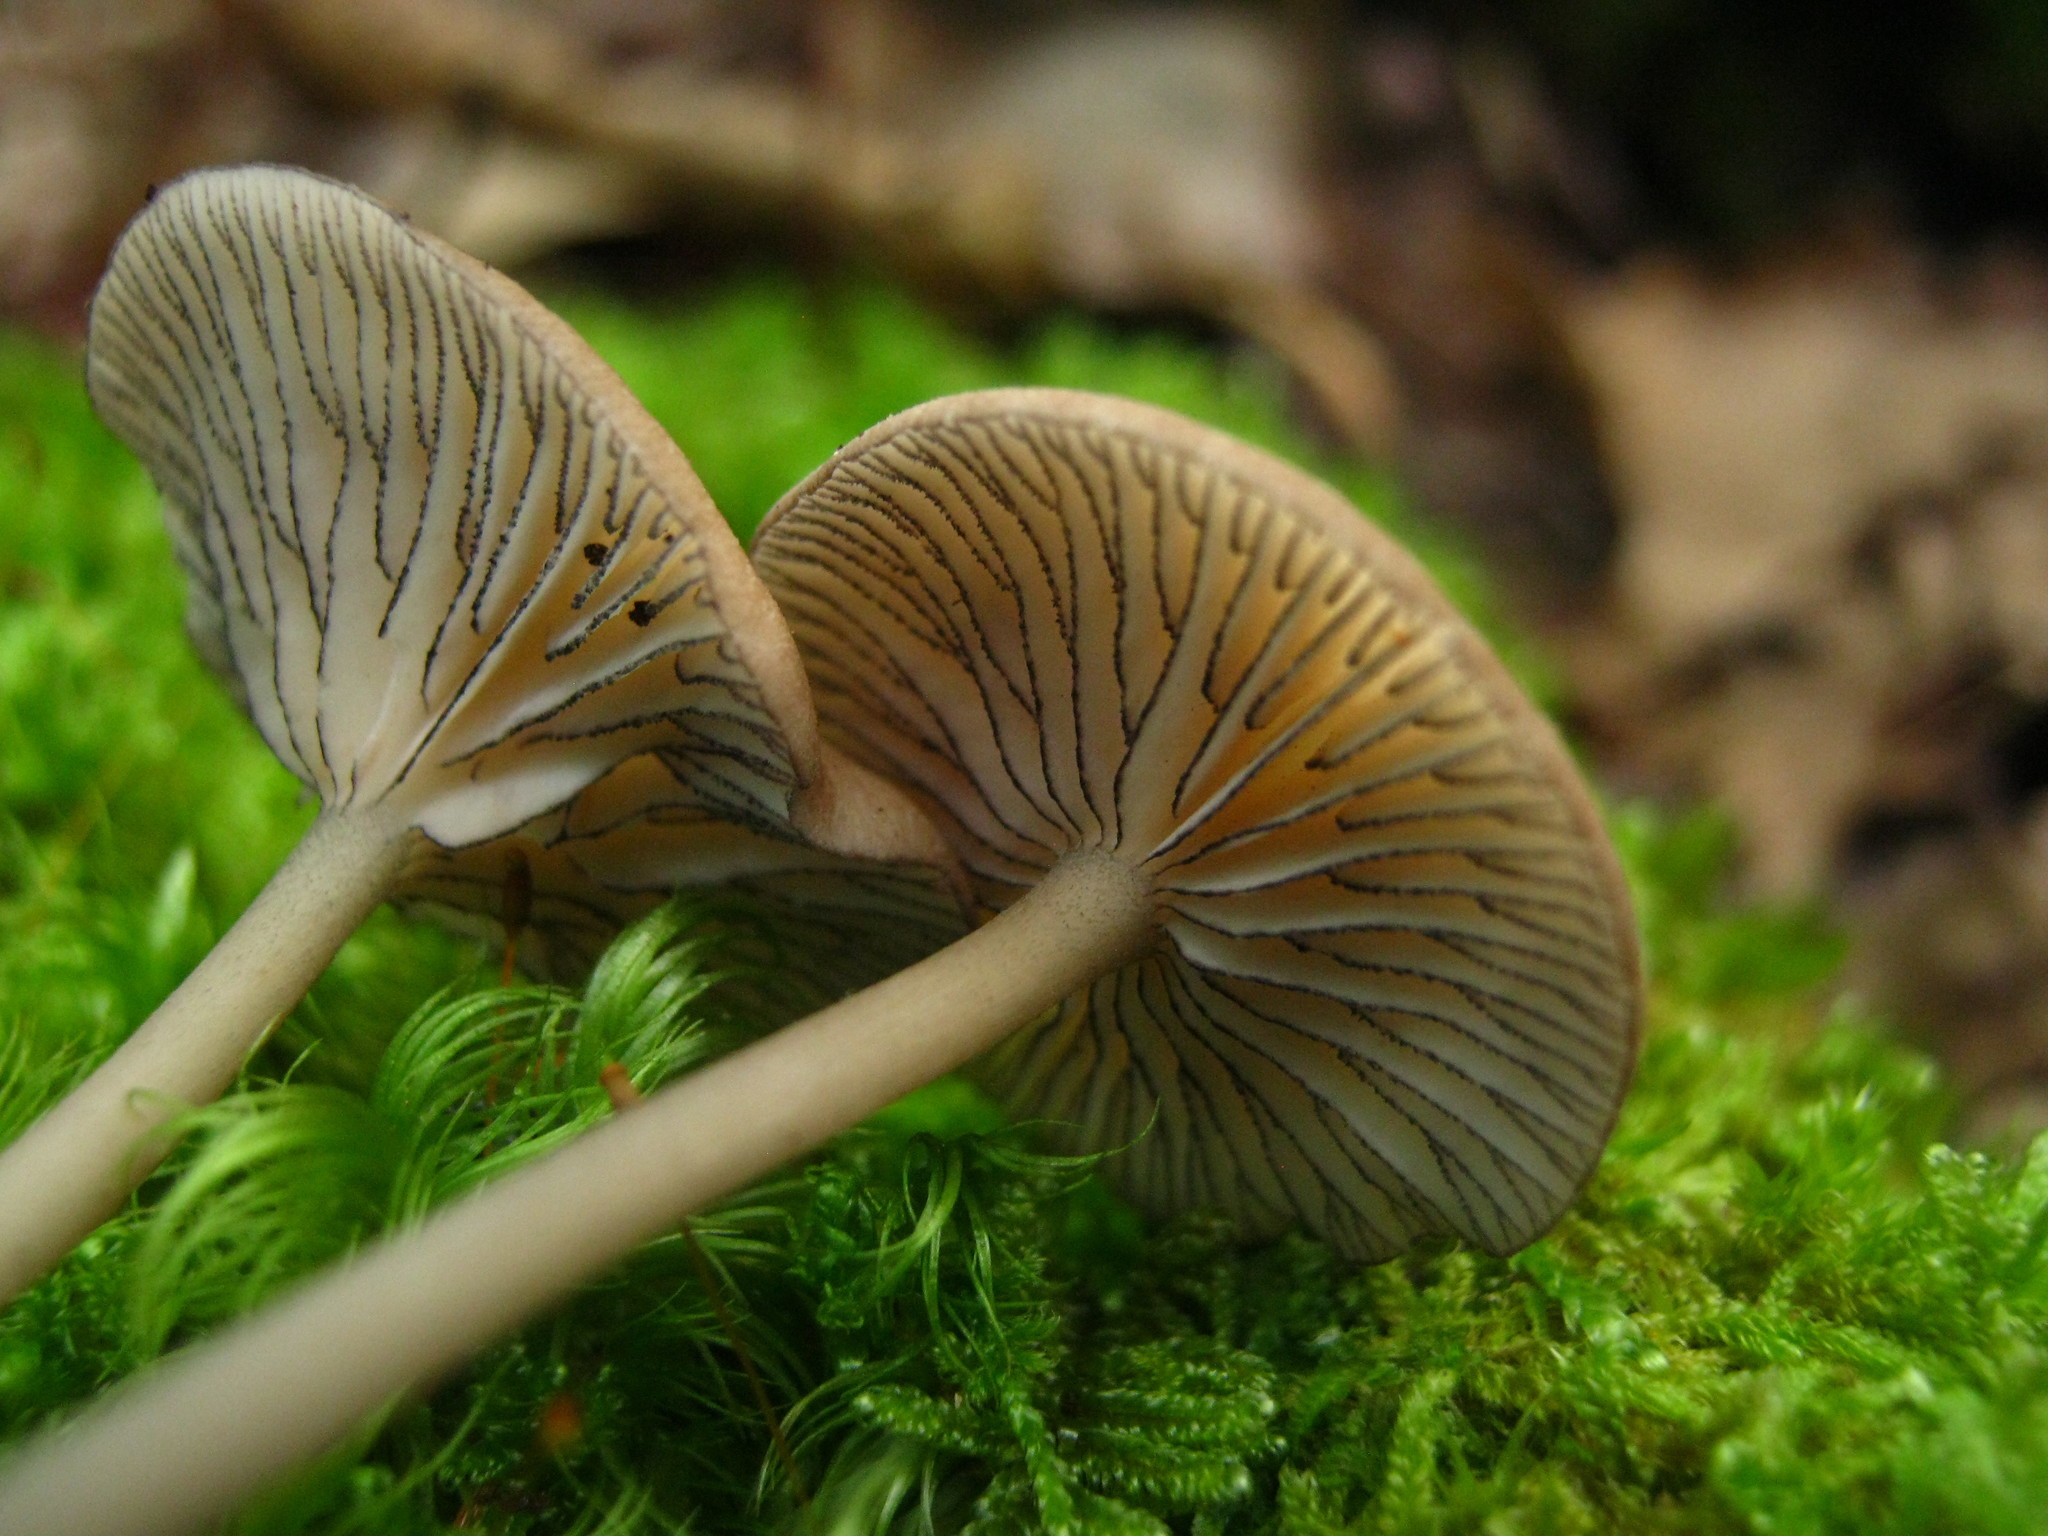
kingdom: Fungi
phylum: Basidiomycota
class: Agaricomycetes
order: Agaricales
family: Entolomataceae
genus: Entoloma
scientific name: Entoloma subserrulatum
